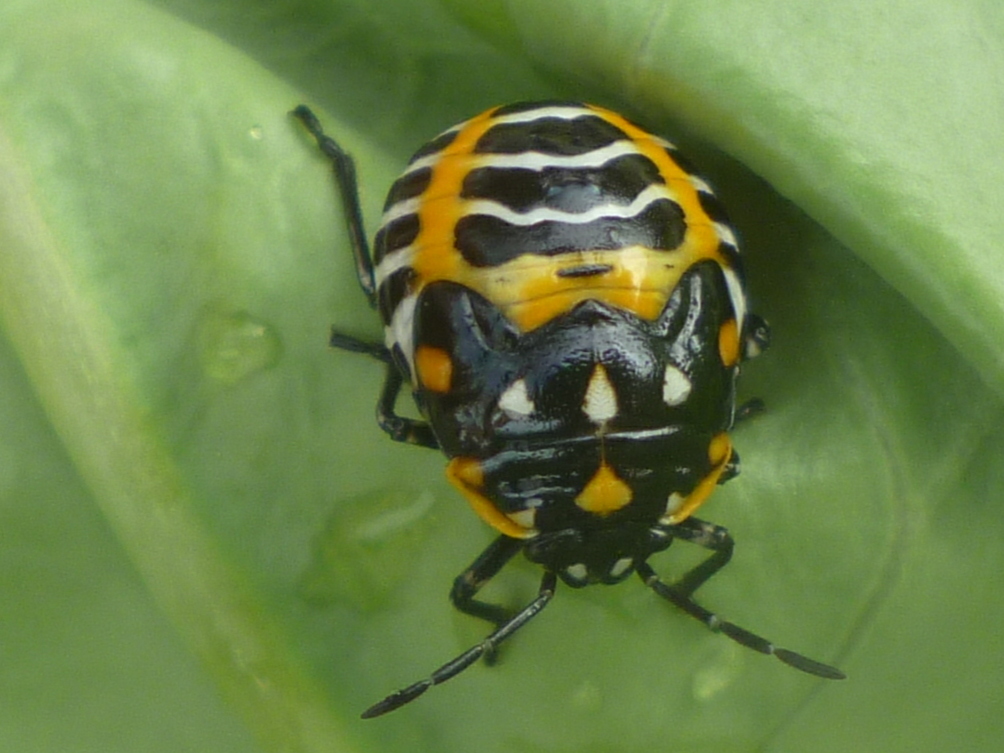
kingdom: Animalia
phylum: Arthropoda
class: Insecta
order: Hemiptera
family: Pentatomidae
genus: Murgantia
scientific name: Murgantia histrionica
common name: Harlequin bug
